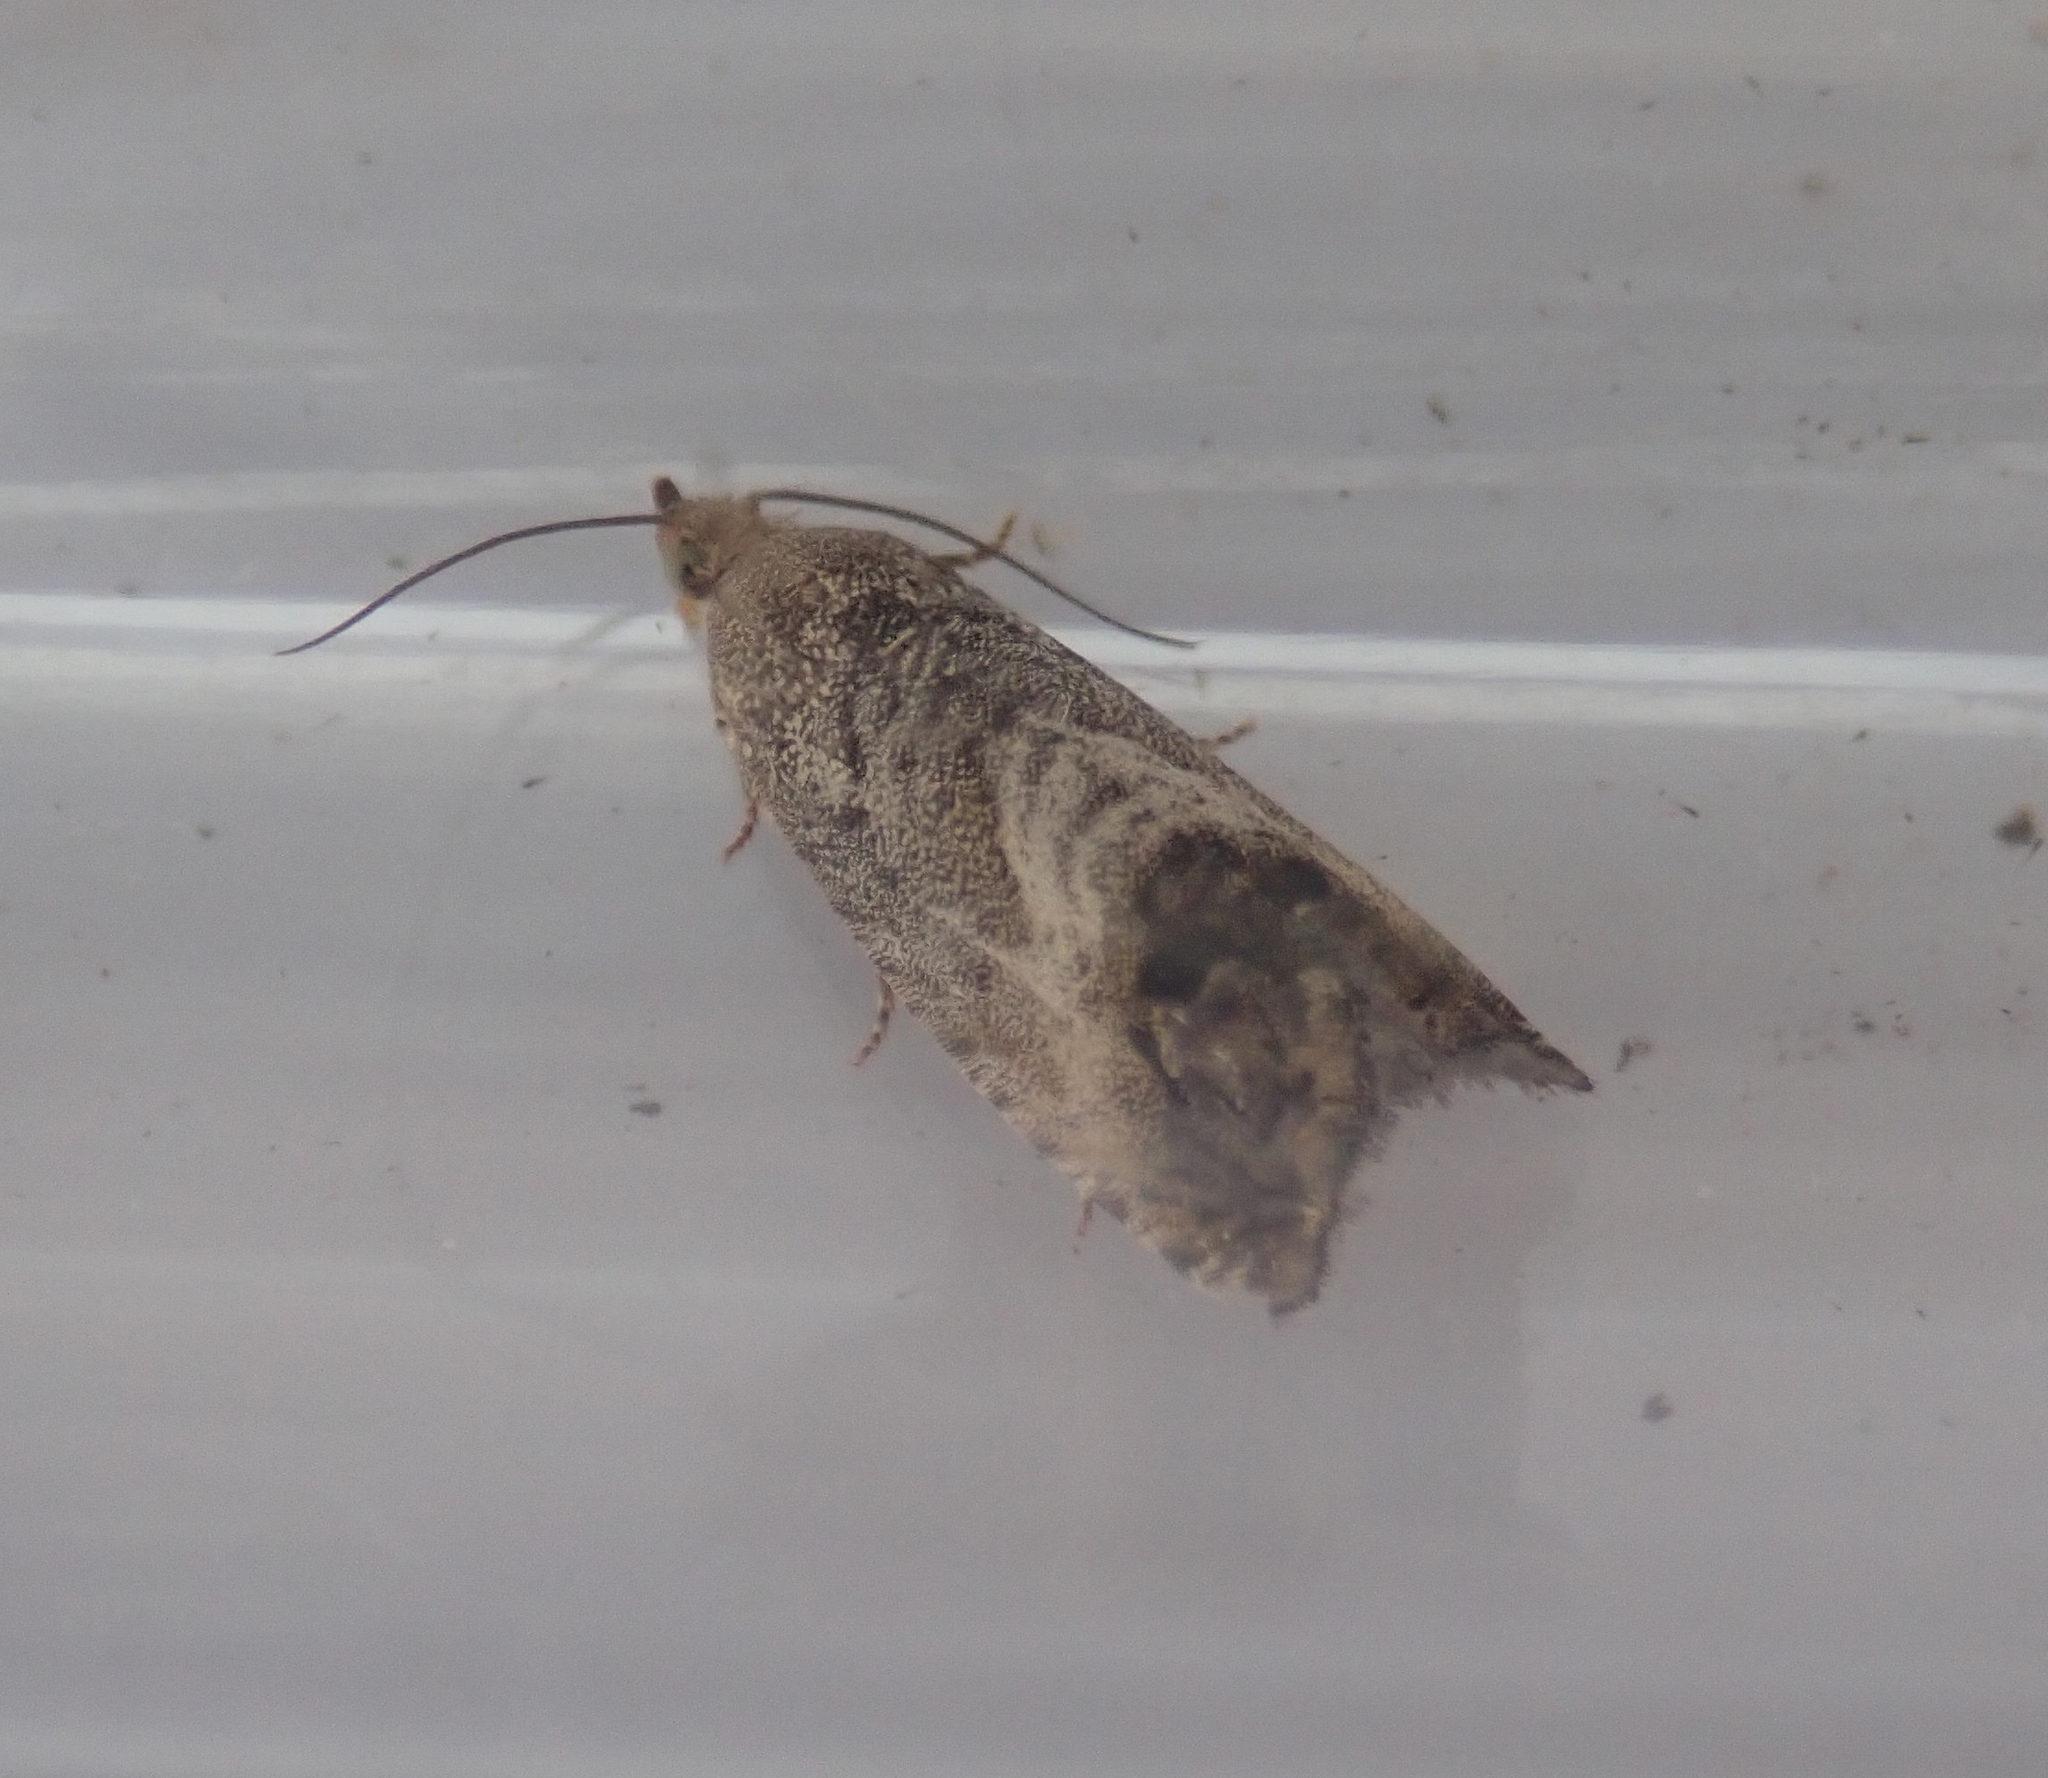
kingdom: Animalia
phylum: Arthropoda
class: Insecta
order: Lepidoptera
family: Tortricidae
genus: Cydia
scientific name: Cydia splendana
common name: De: kastanienwickler, eichenwickler es: oruga de la castaña fr: carpocapse des châtaignes it: cidia o tortrice tardiva delle castagne pt: bichado das castanhas gb: acorn moth, chestnut fruit tortrix
